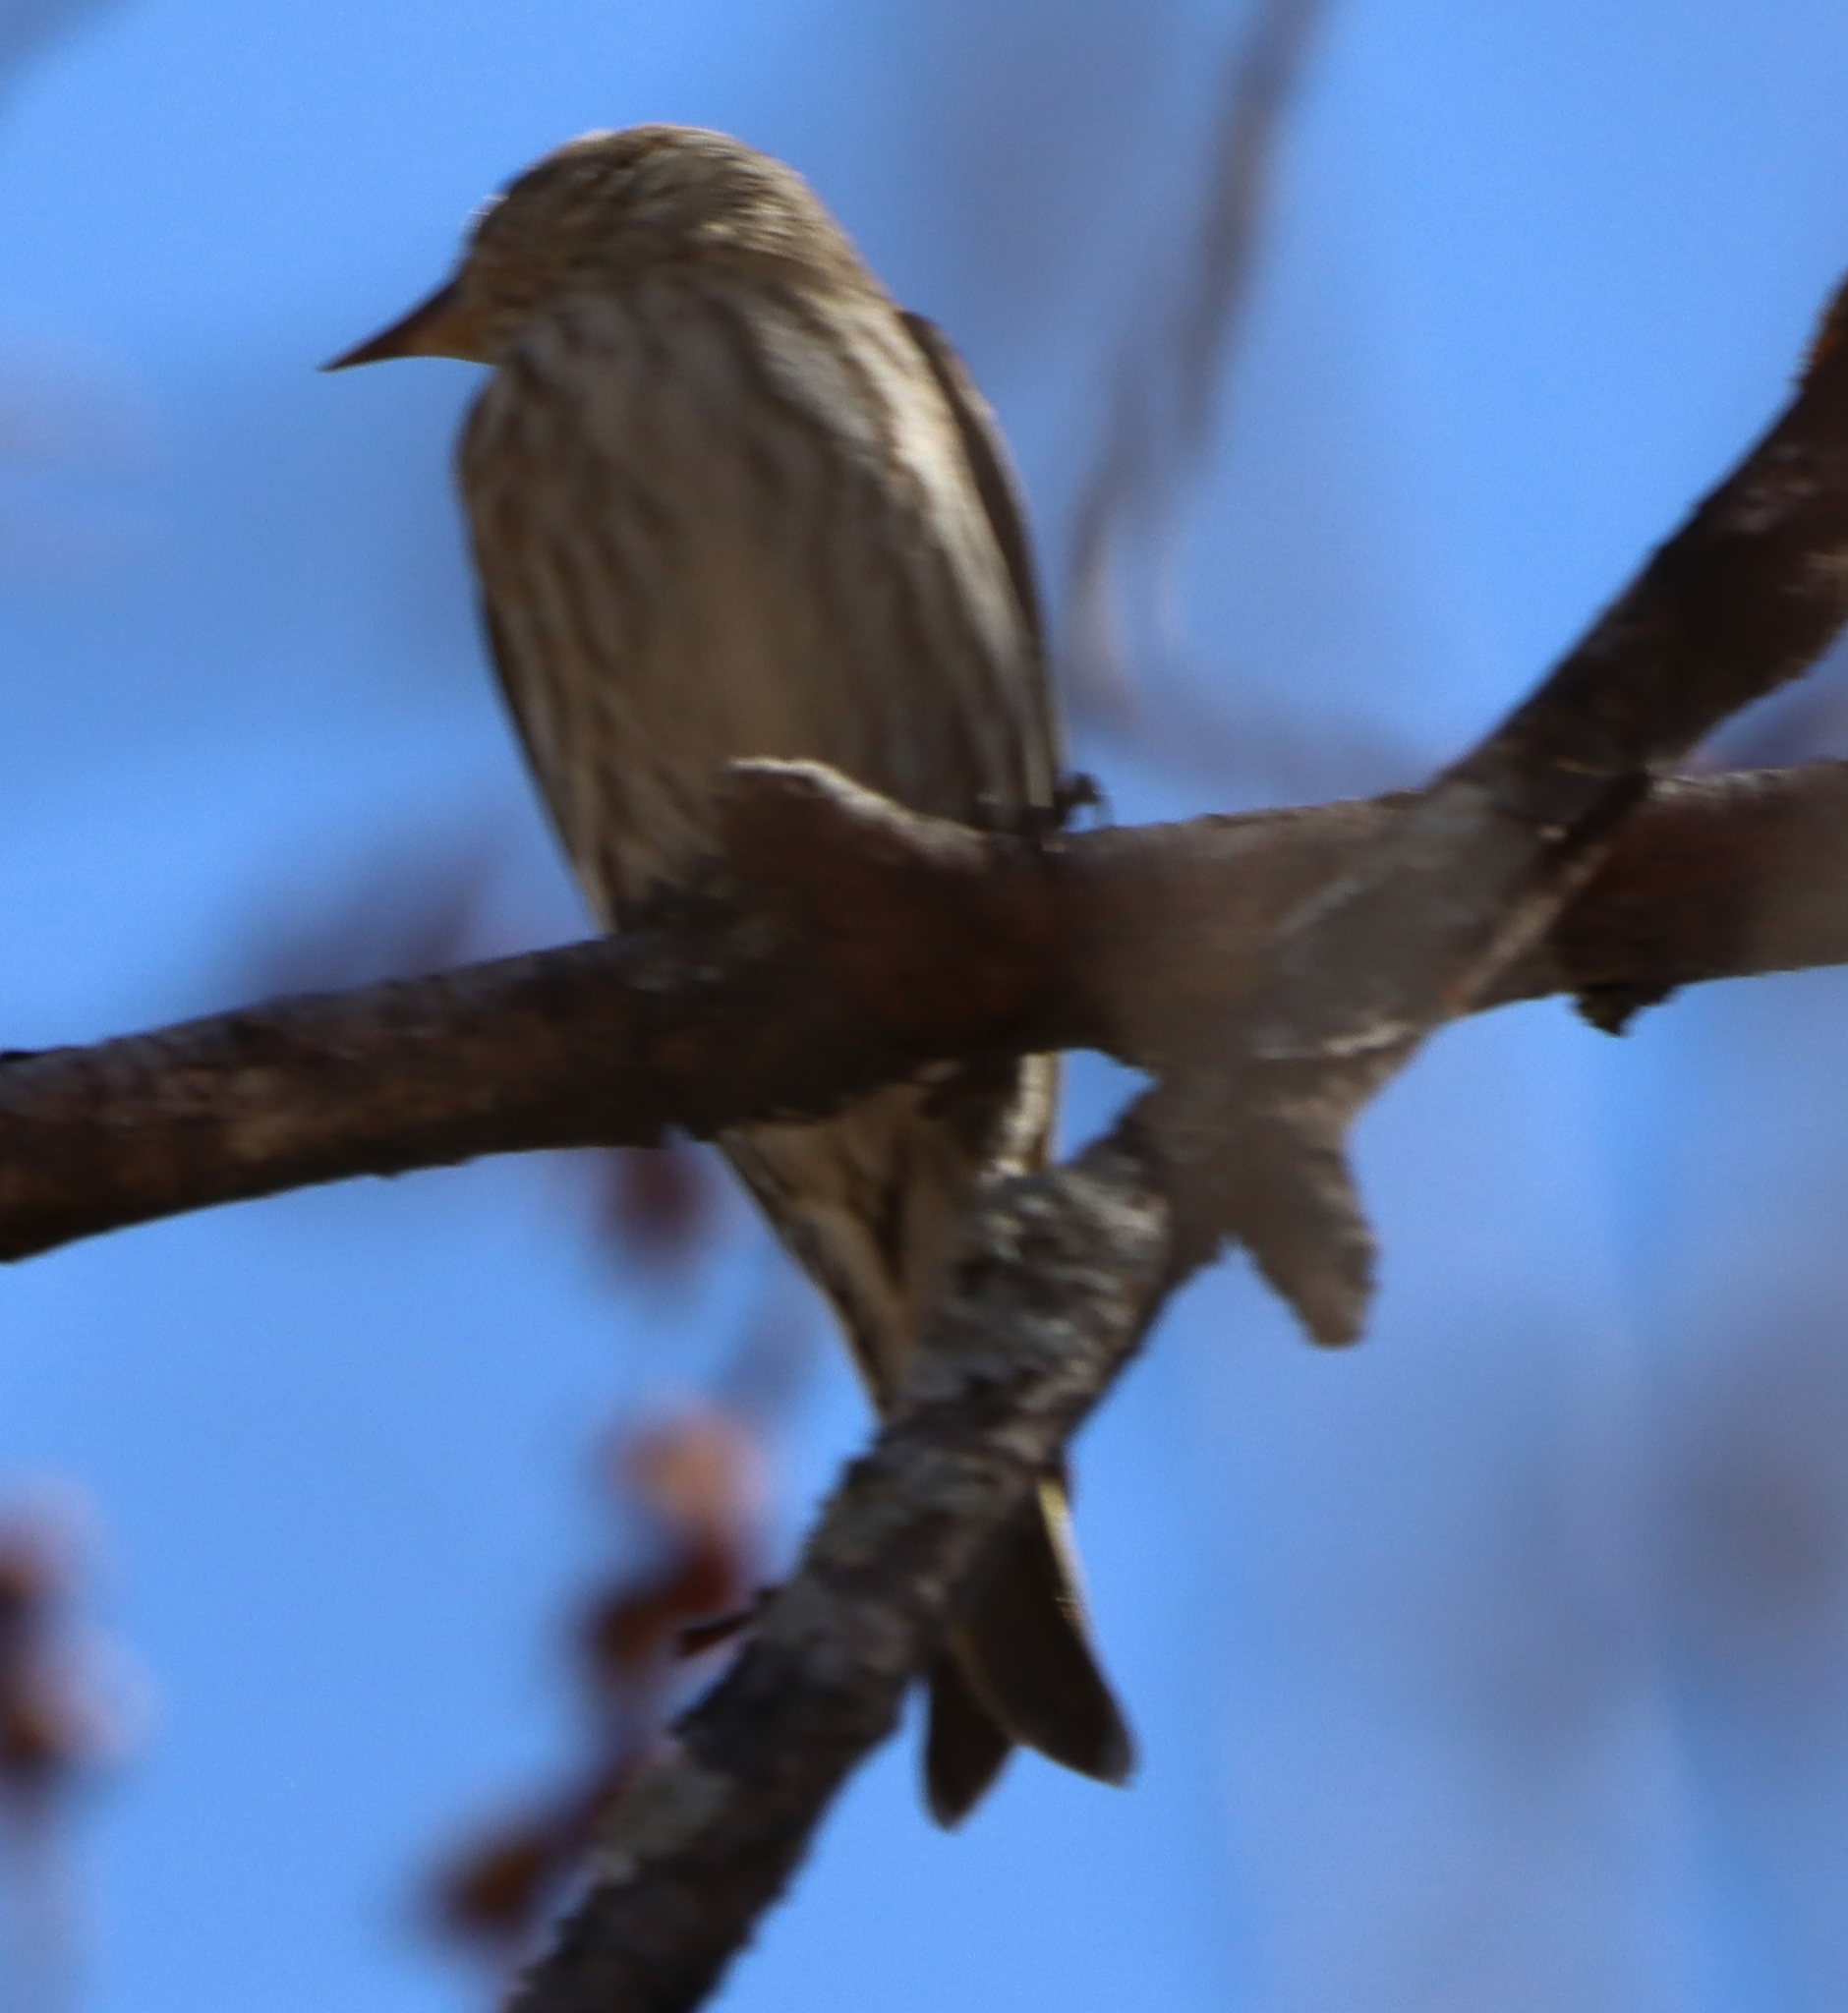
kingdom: Animalia
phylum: Chordata
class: Aves
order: Passeriformes
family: Fringillidae
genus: Spinus
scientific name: Spinus pinus
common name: Pine siskin
